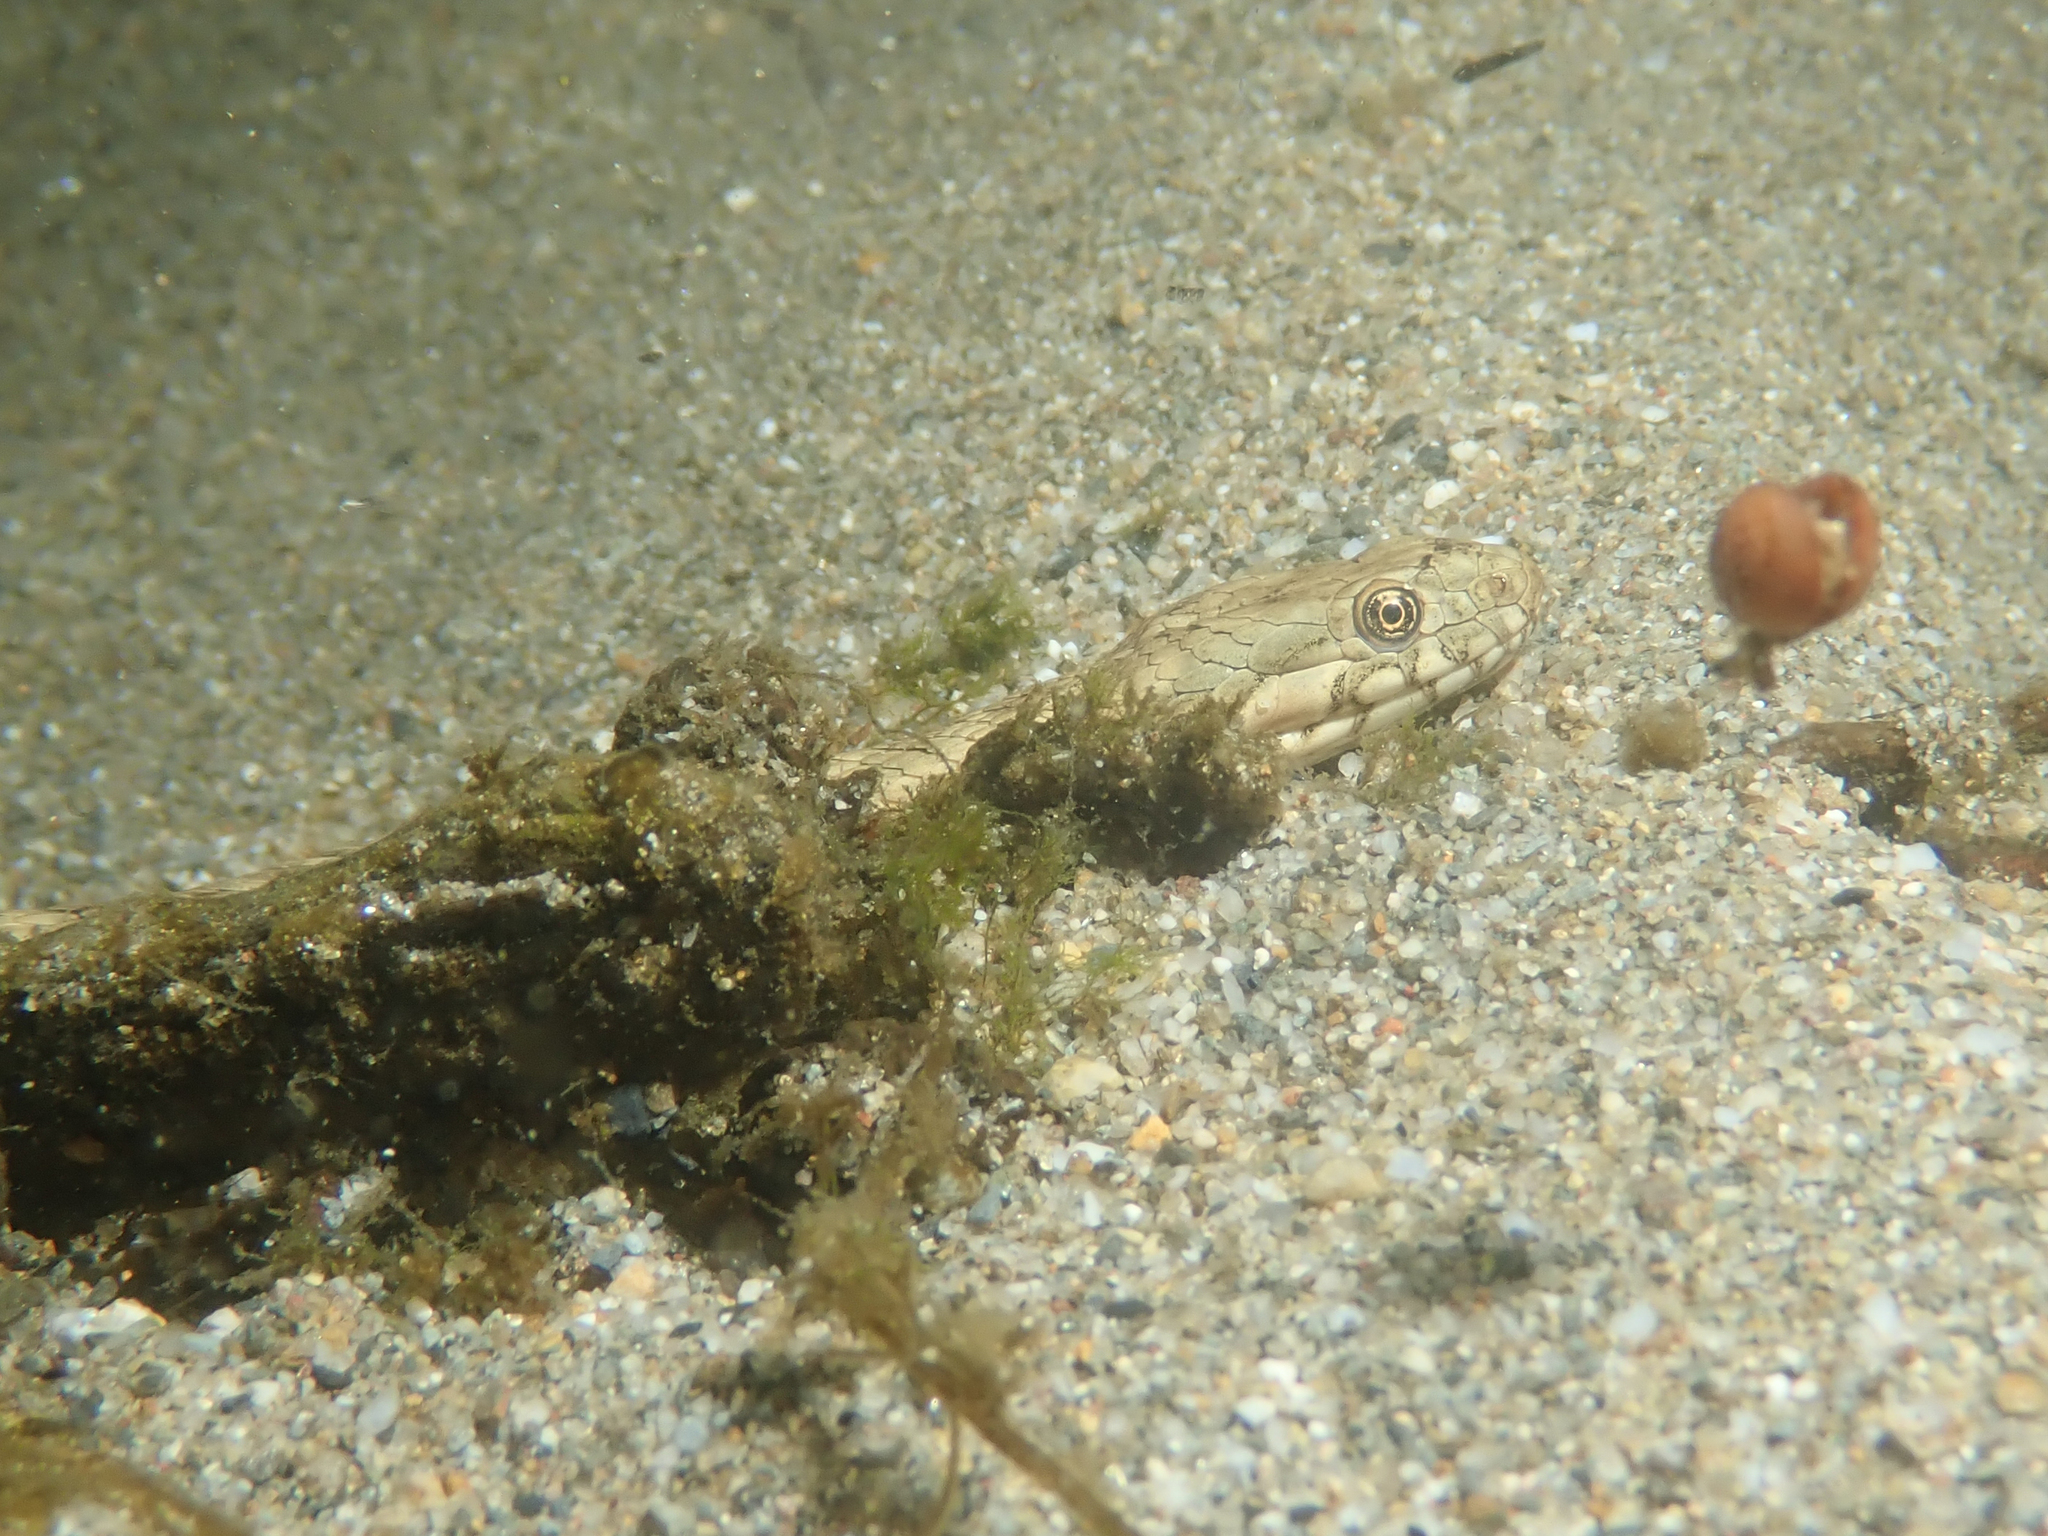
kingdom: Animalia
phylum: Chordata
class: Squamata
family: Colubridae
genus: Natrix
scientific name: Natrix maura
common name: Viperine water snake
